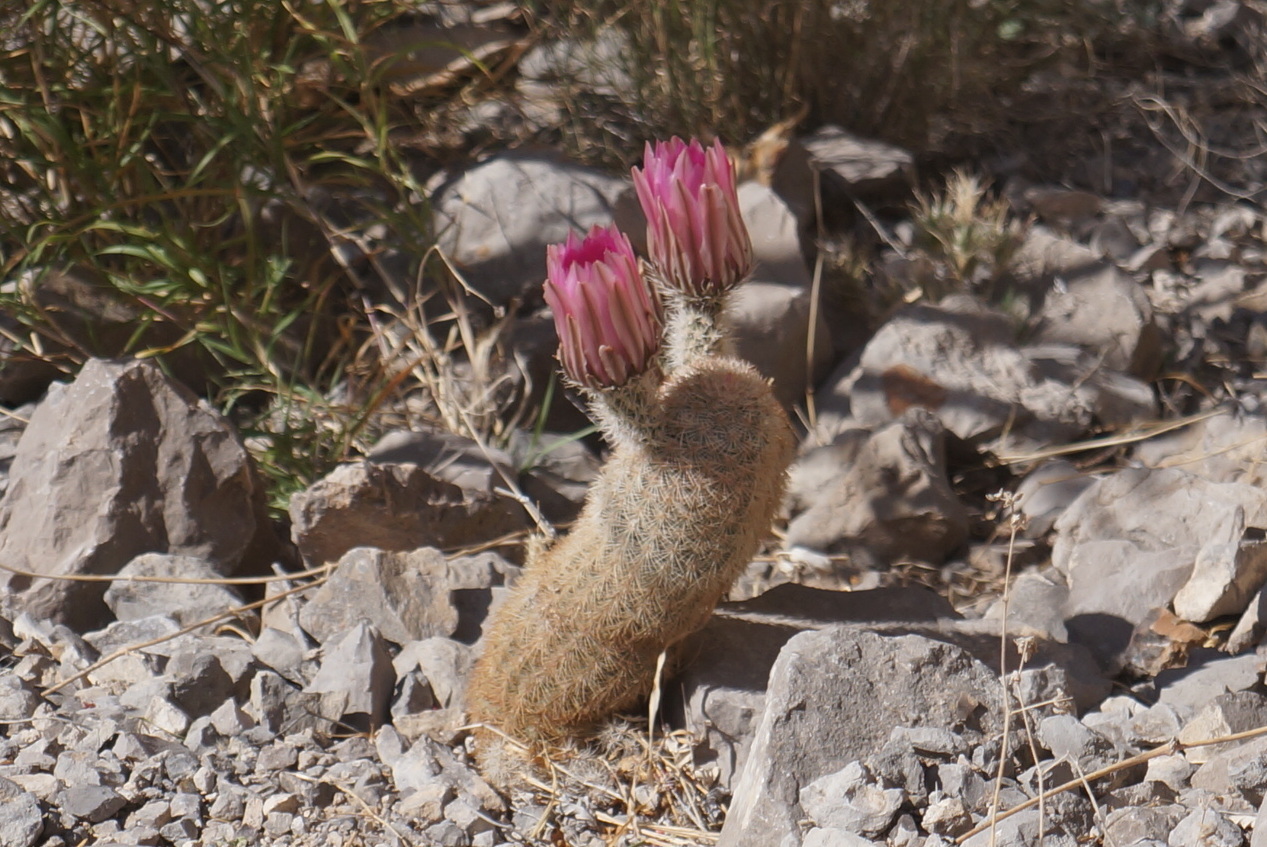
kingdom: Plantae
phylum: Tracheophyta
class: Magnoliopsida
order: Caryophyllales
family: Cactaceae
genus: Echinocereus
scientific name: Echinocereus dasyacanthus
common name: Spiny hedgehog cactus
